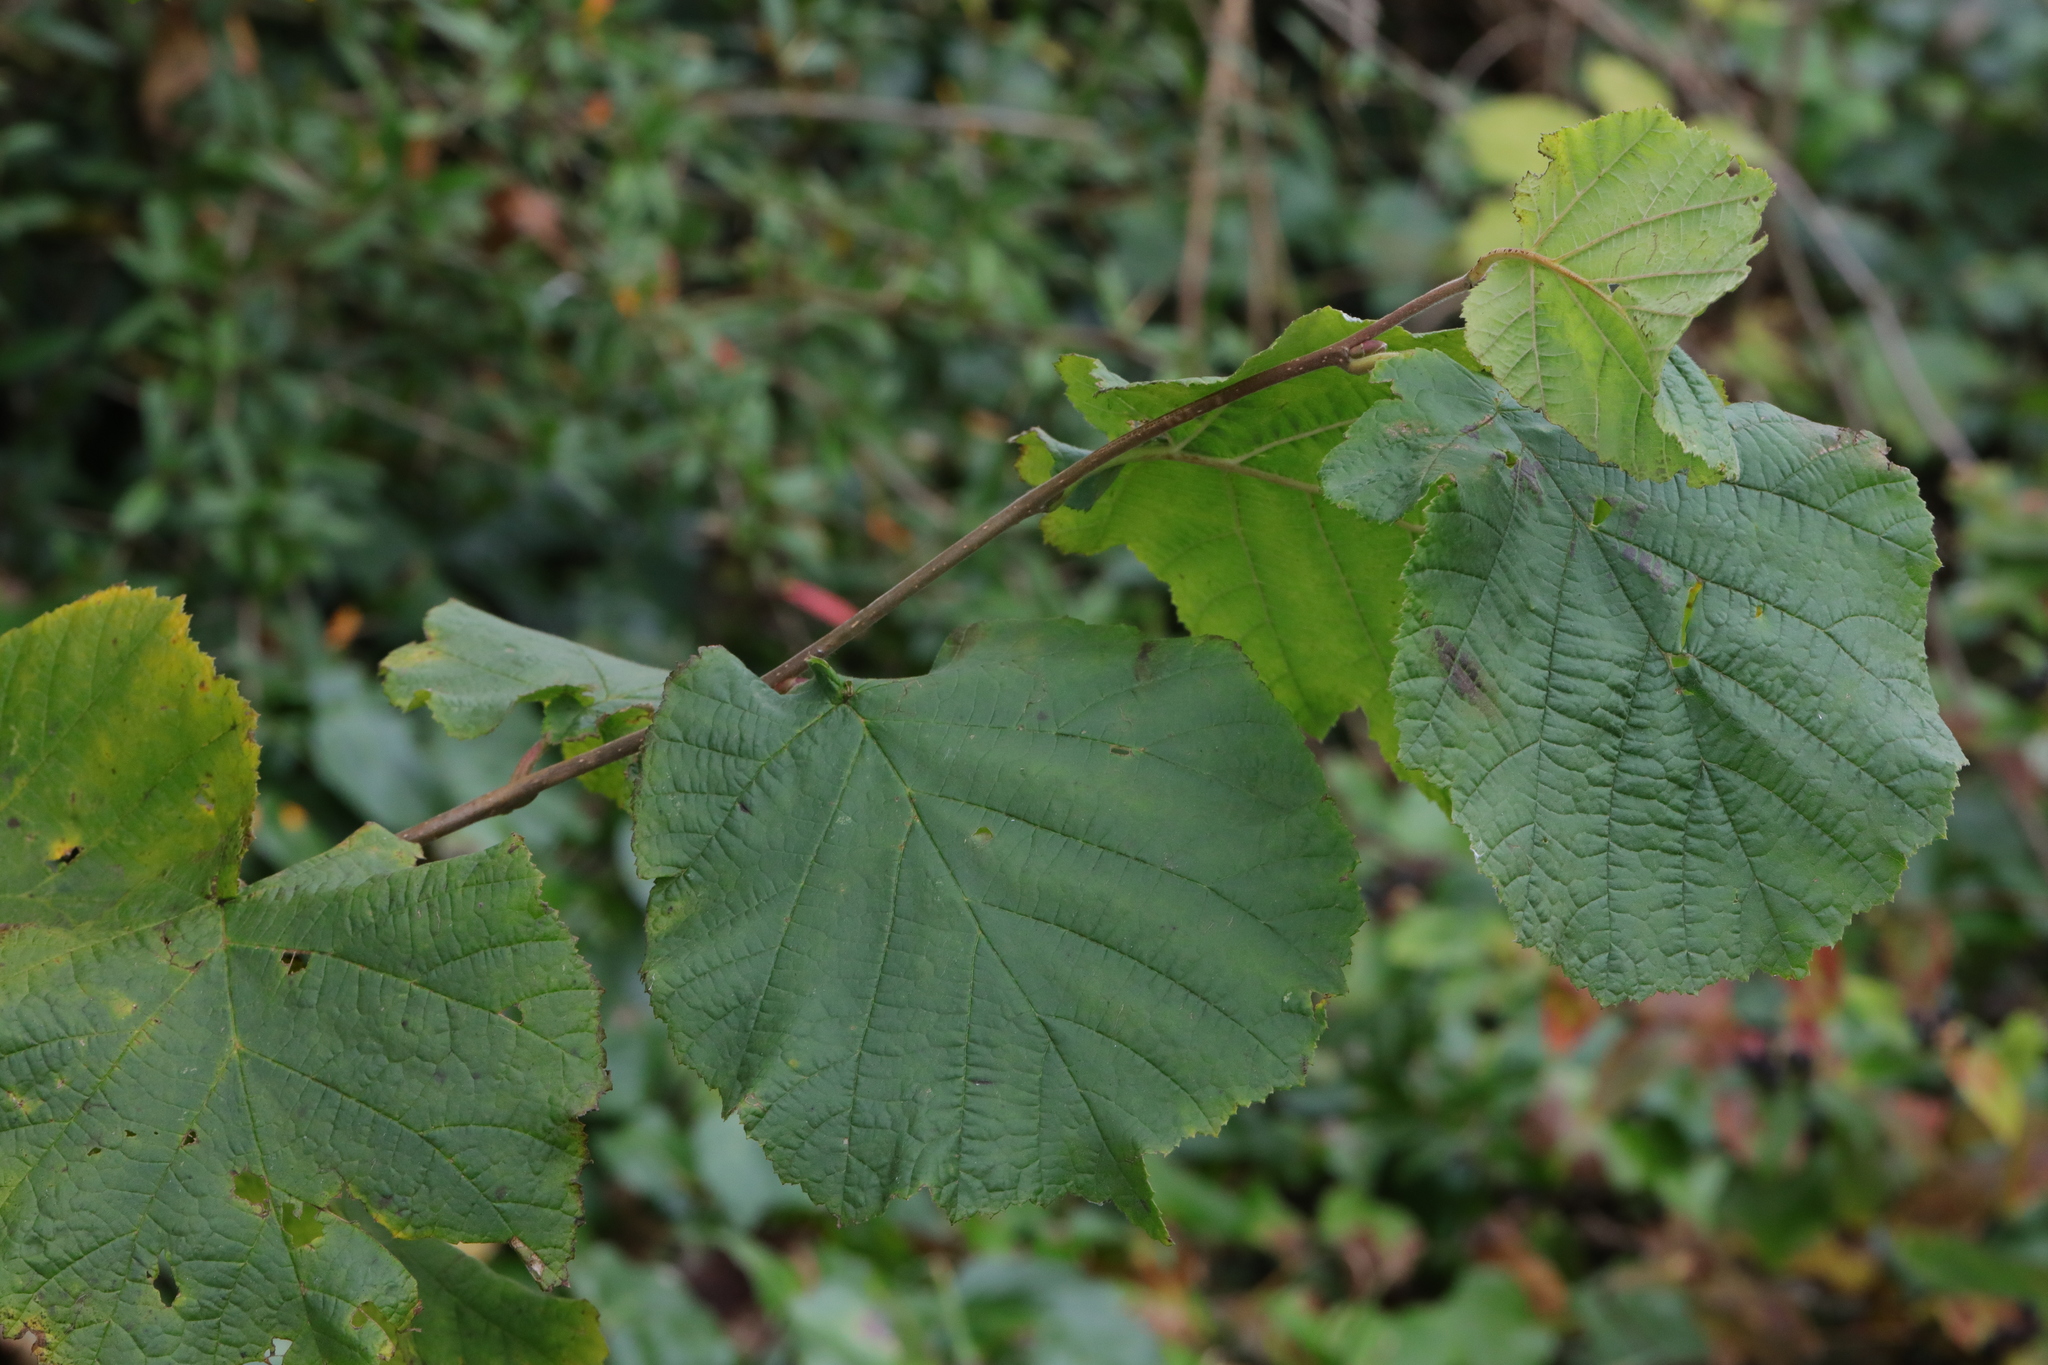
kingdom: Plantae
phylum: Tracheophyta
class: Magnoliopsida
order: Fagales
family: Betulaceae
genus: Corylus
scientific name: Corylus avellana
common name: European hazel
